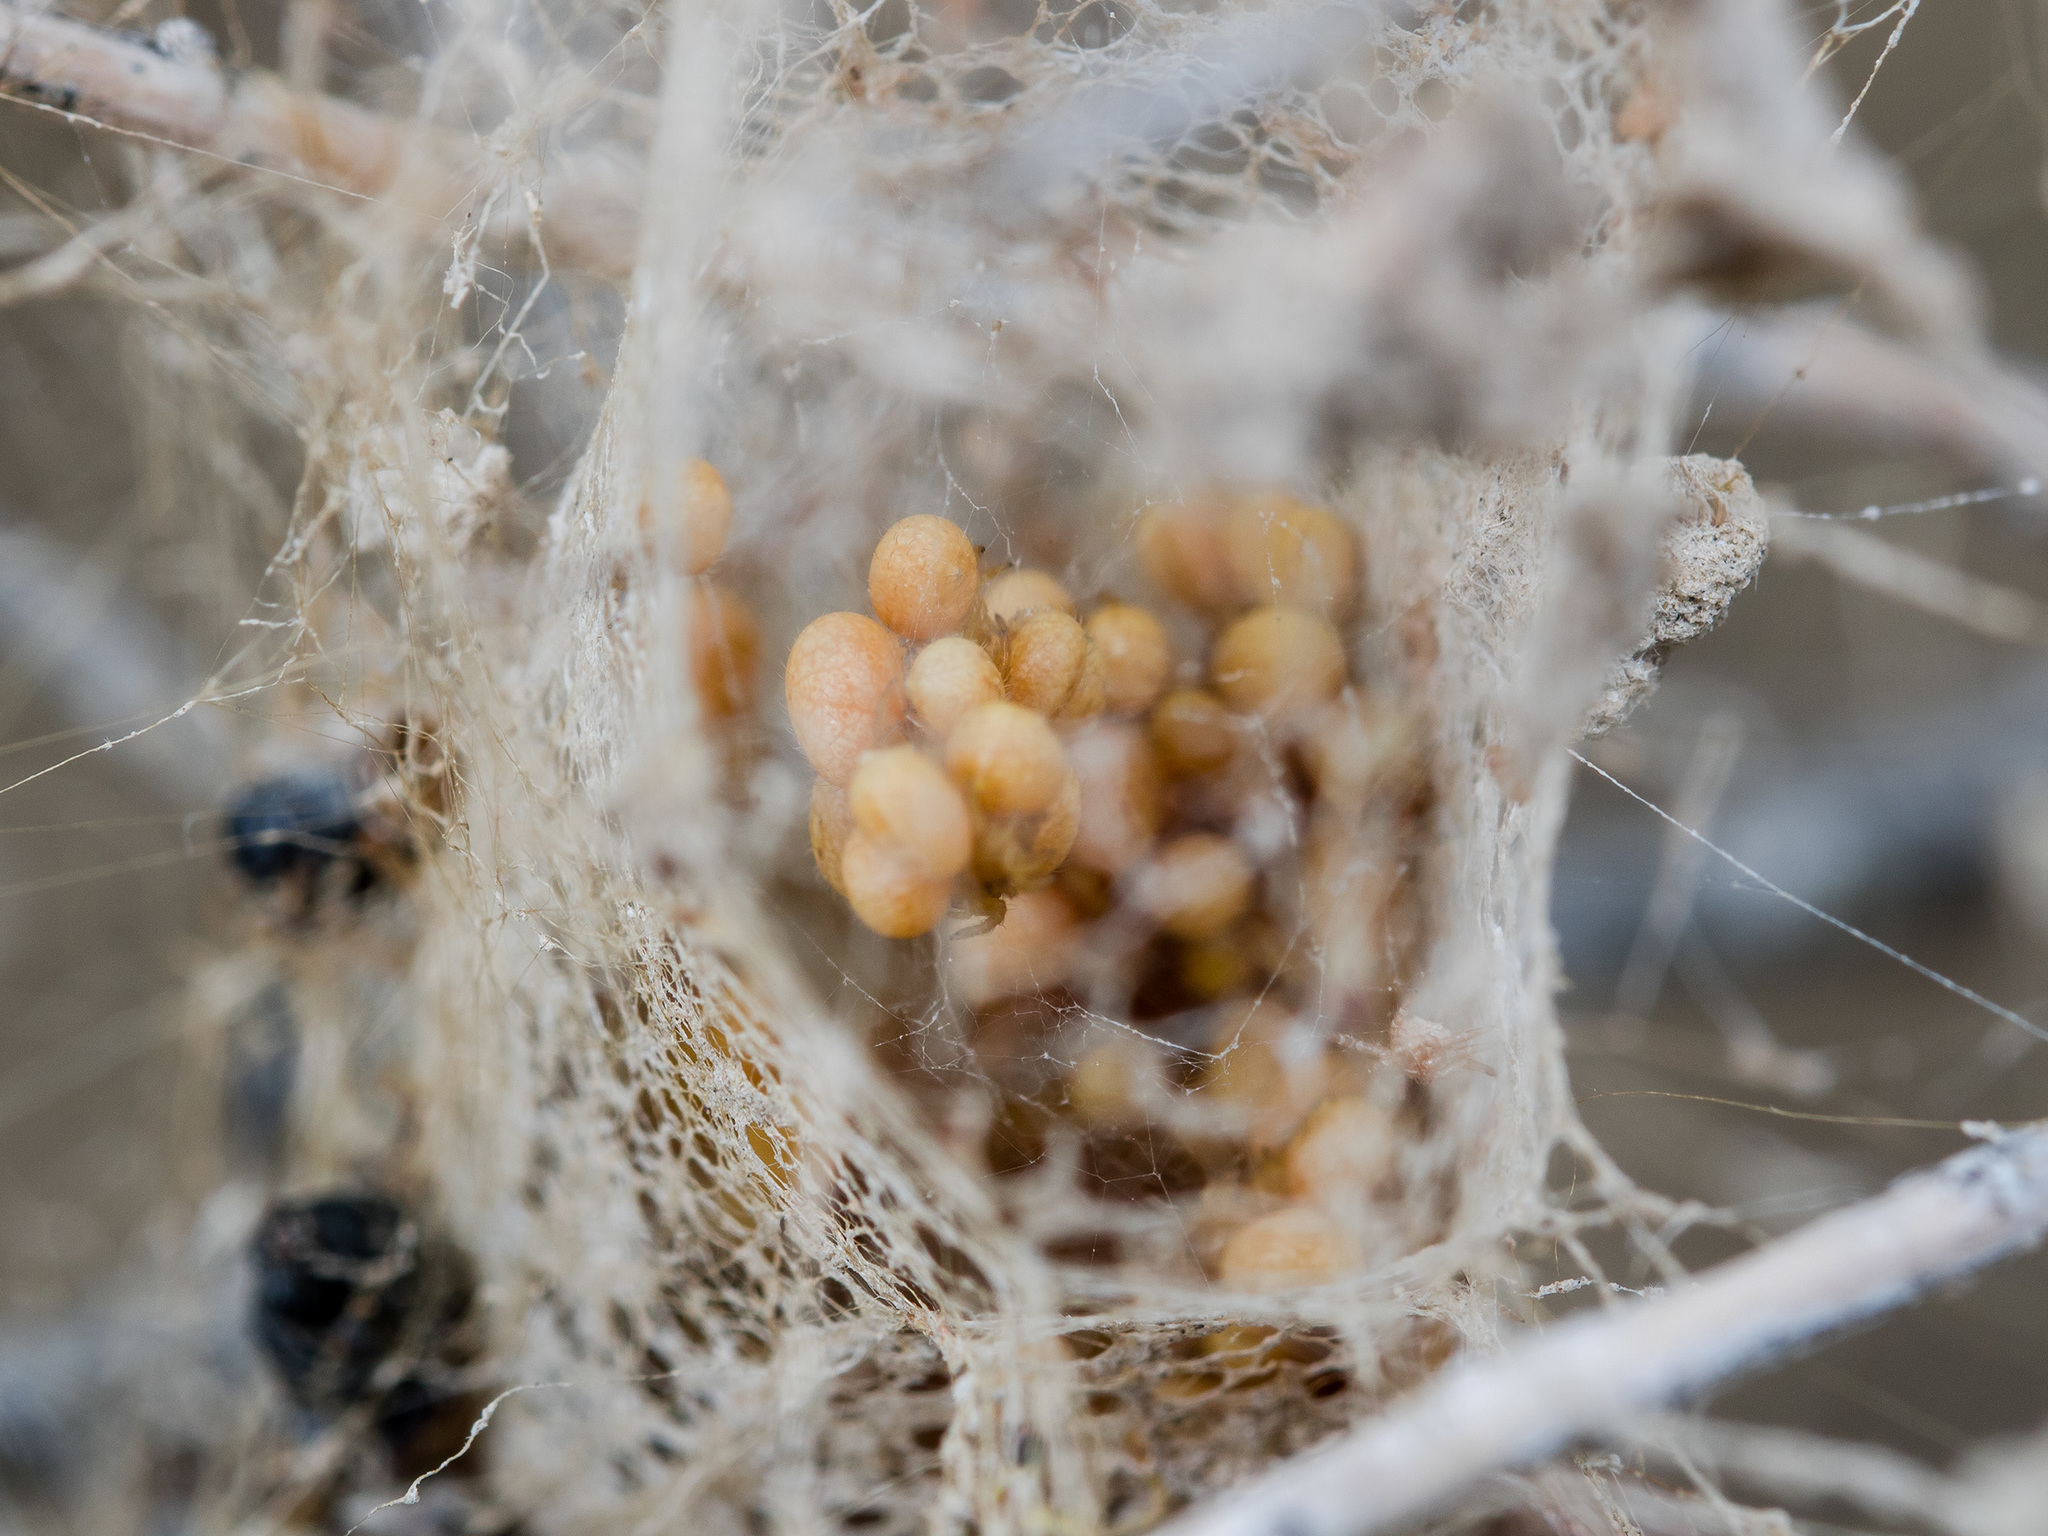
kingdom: Animalia
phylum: Arthropoda
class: Arachnida
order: Araneae
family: Eresidae
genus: Stegodyphus
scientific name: Stegodyphus lineatus
